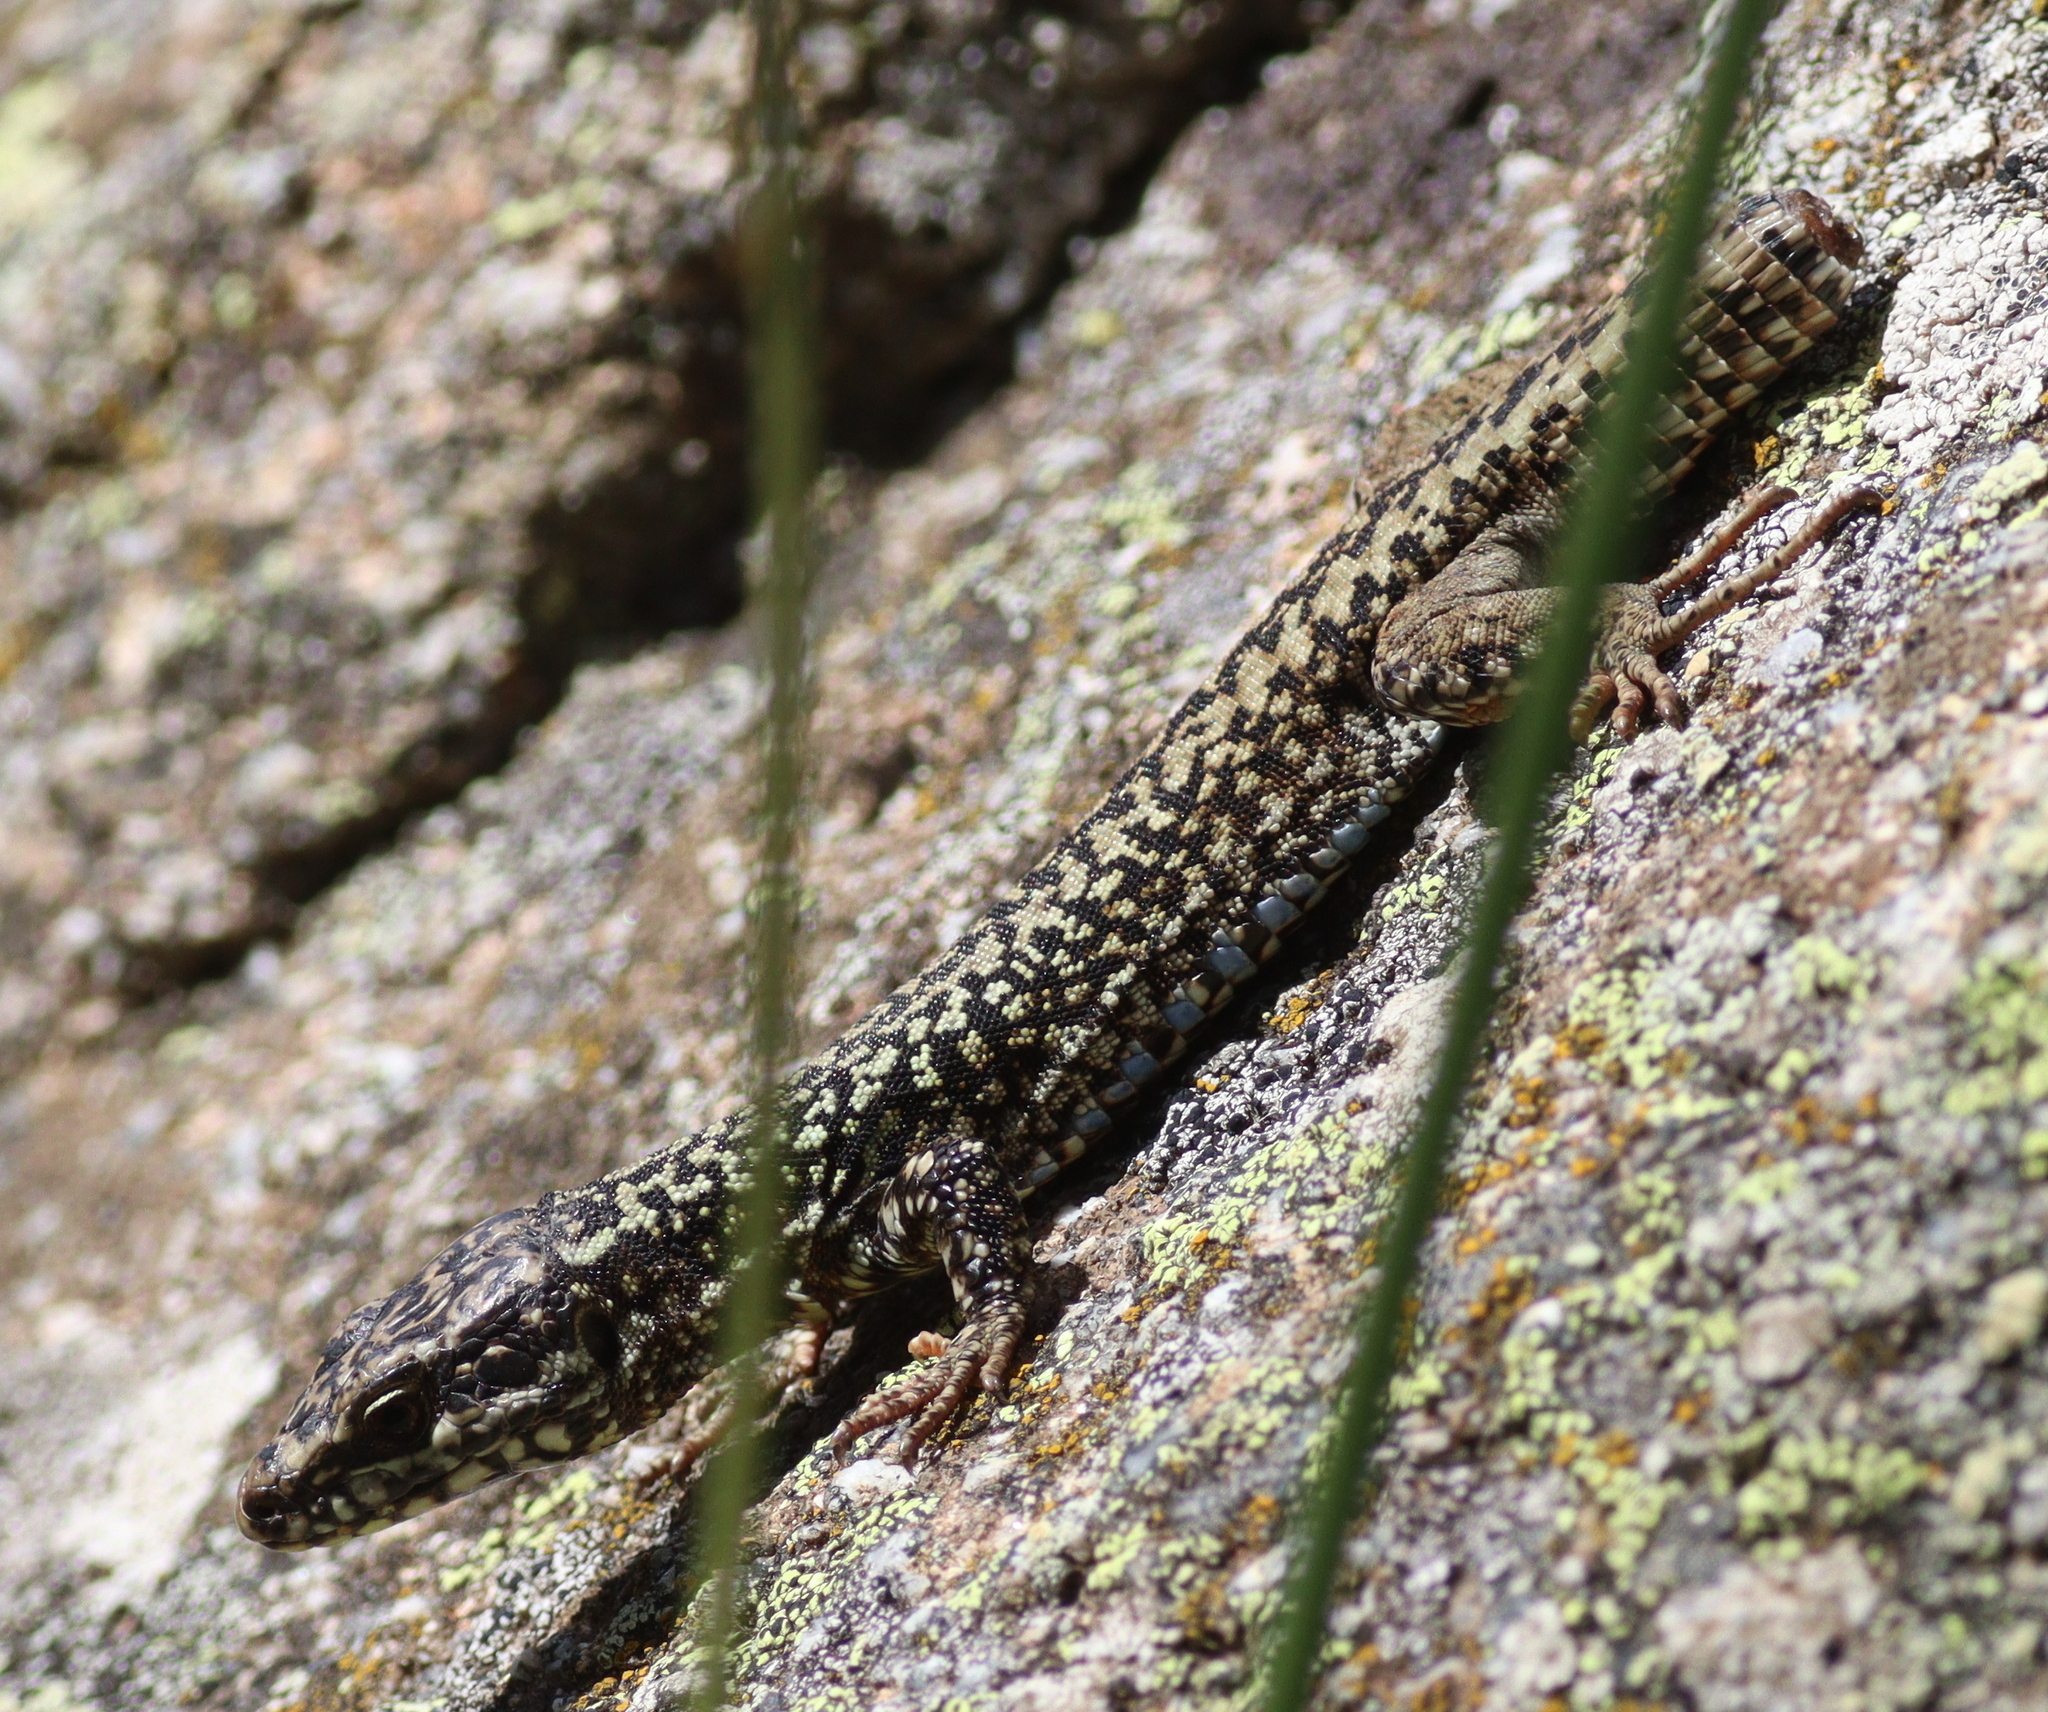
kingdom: Animalia
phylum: Chordata
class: Squamata
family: Lacertidae
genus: Podarcis
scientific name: Podarcis muralis
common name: Common wall lizard
